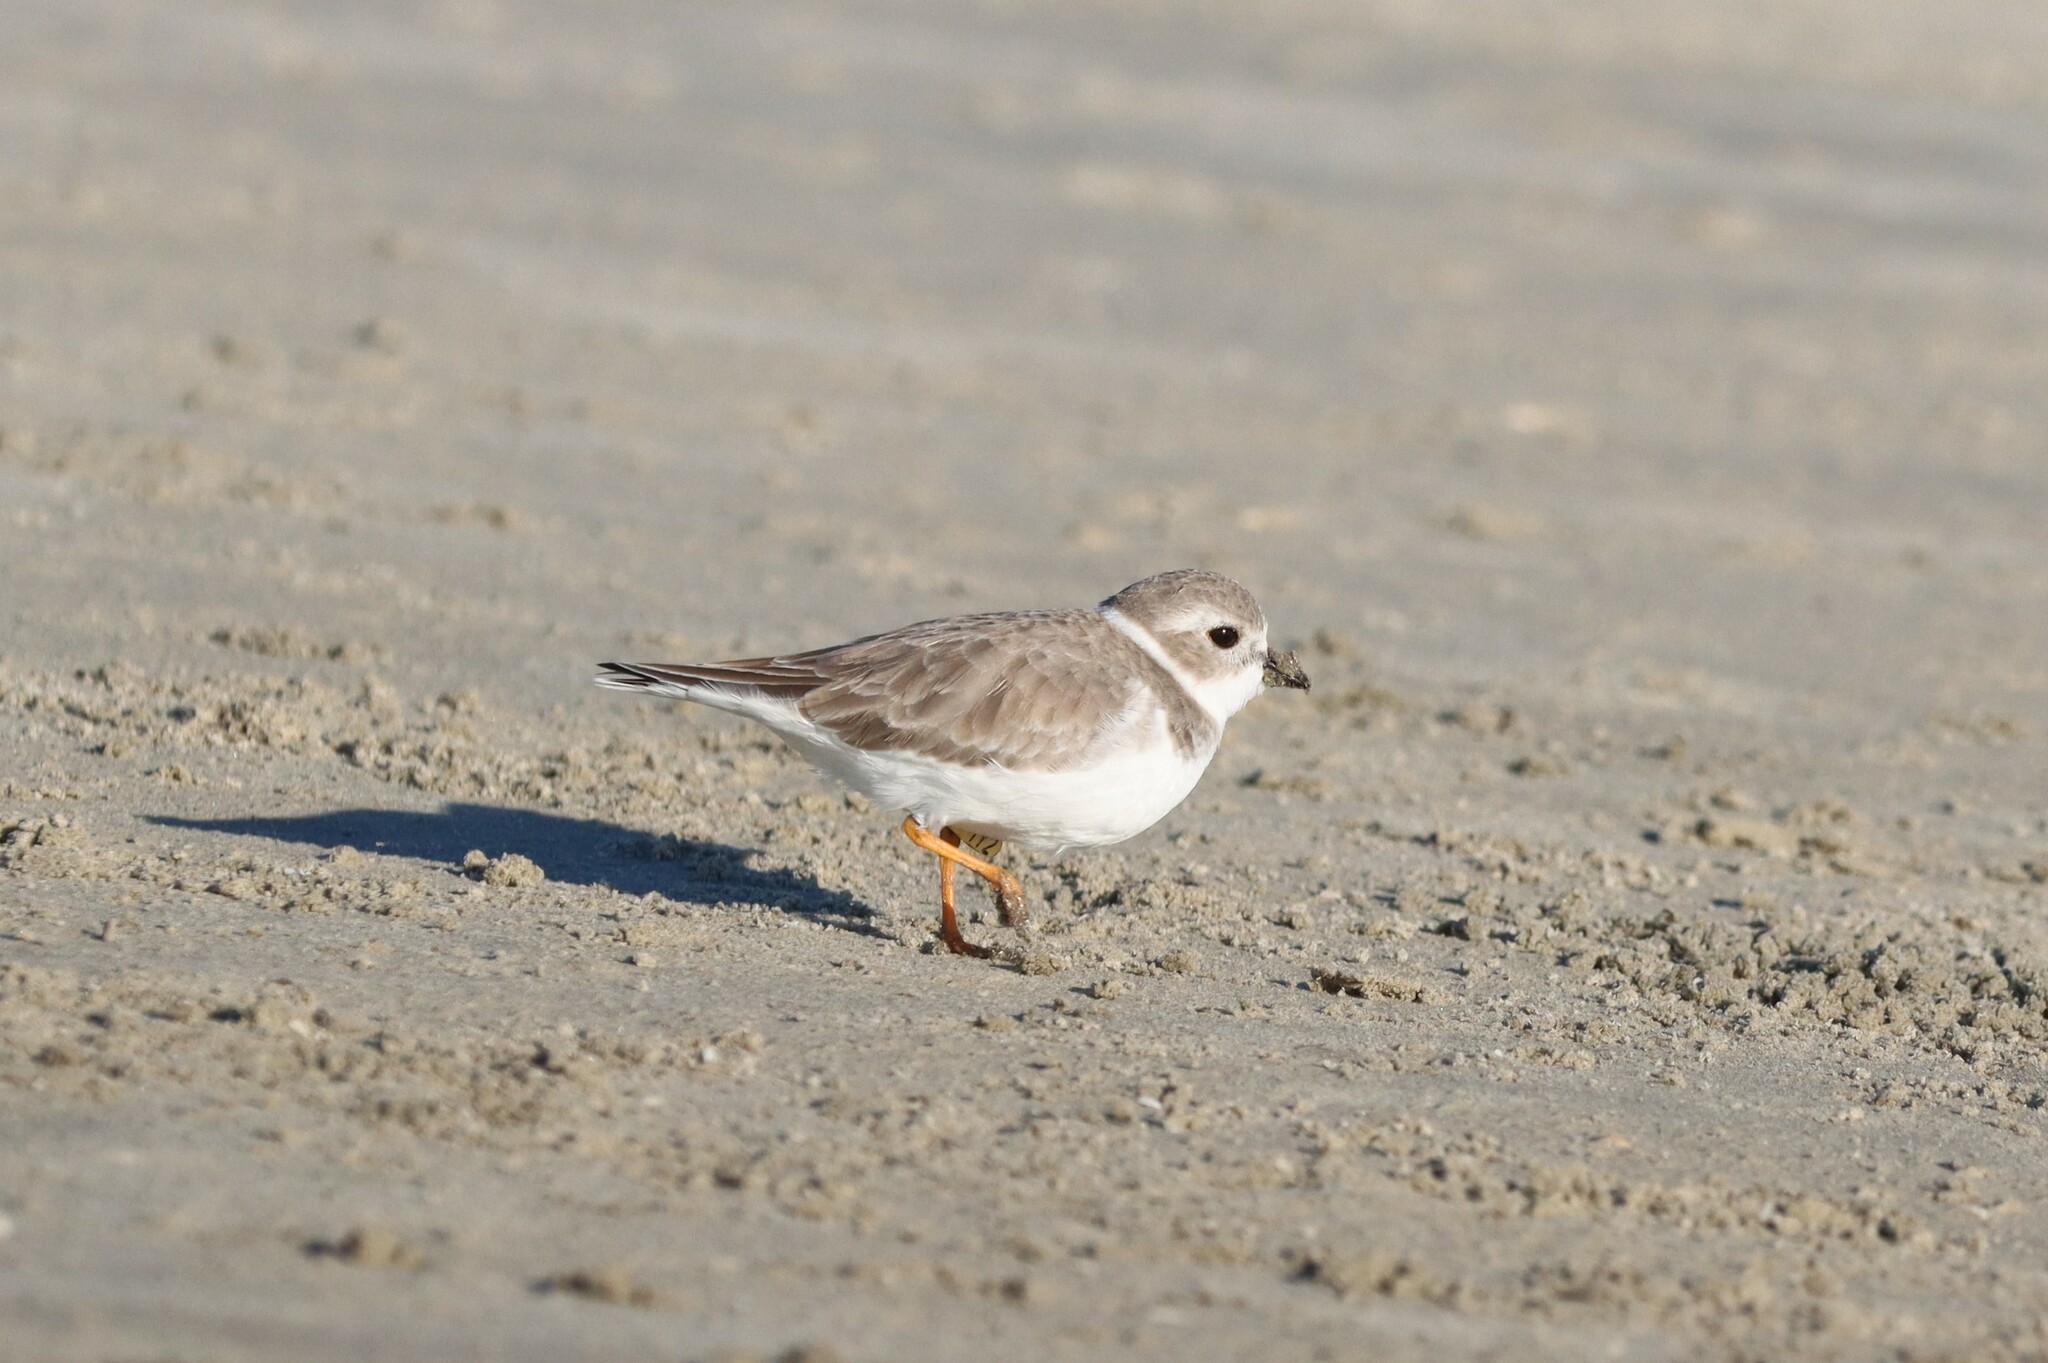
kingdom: Animalia
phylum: Chordata
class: Aves
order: Charadriiformes
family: Charadriidae
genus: Charadrius
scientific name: Charadrius melodus
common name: Piping plover
